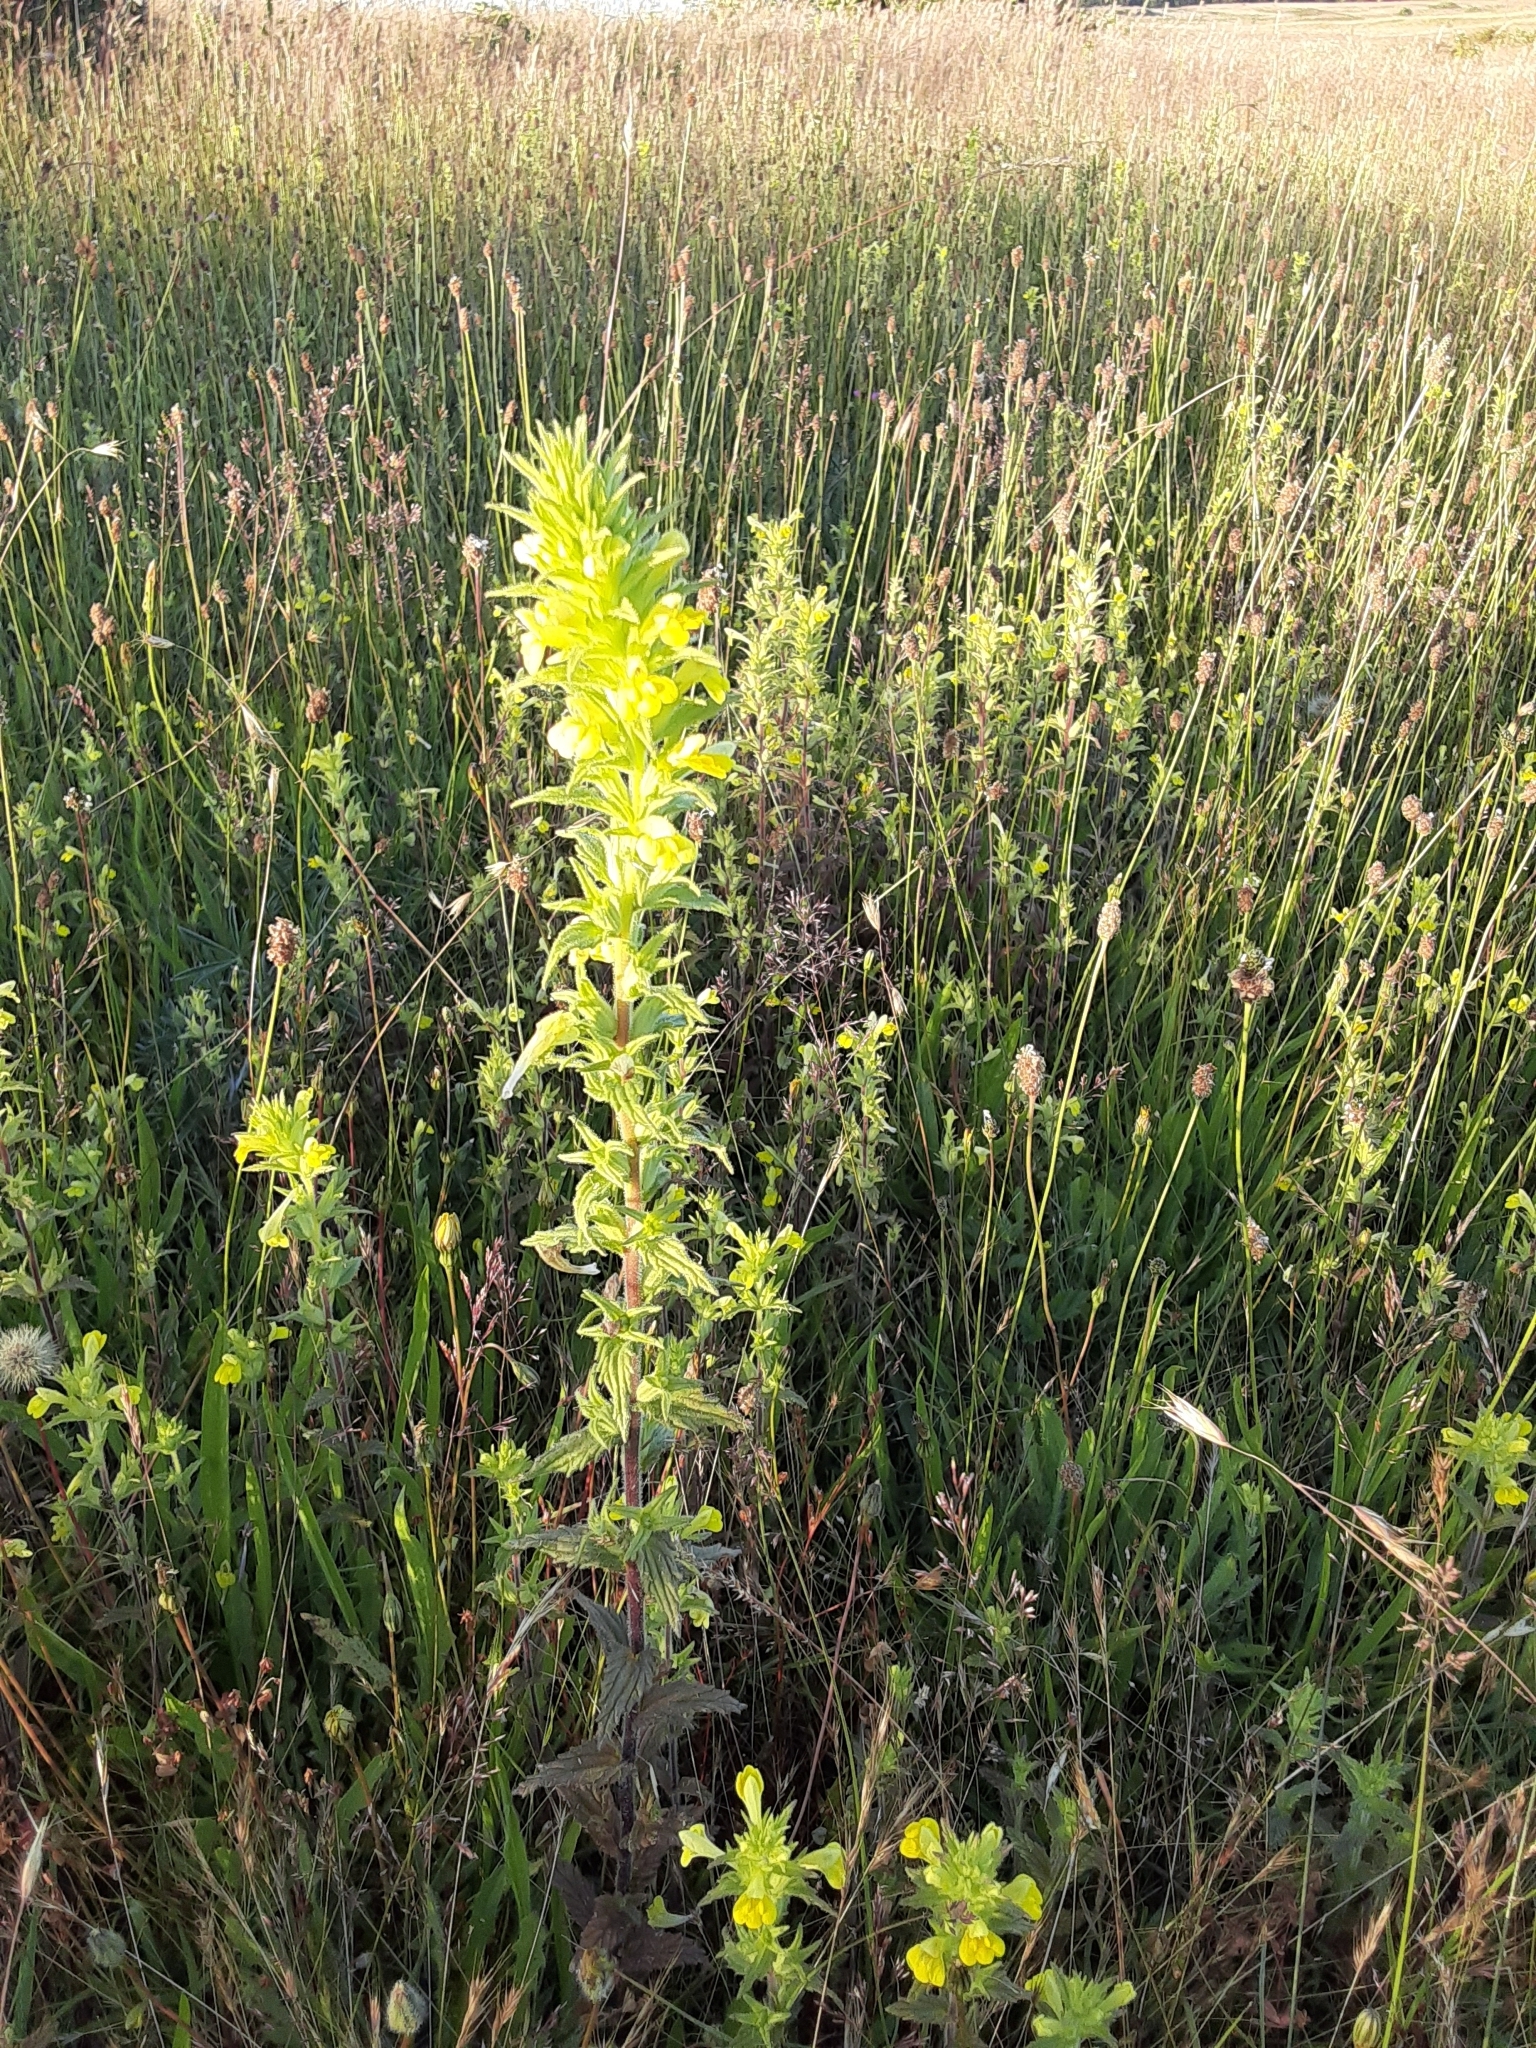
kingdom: Plantae
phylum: Tracheophyta
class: Magnoliopsida
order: Lamiales
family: Orobanchaceae
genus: Bellardia
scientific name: Bellardia viscosa
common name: Sticky parentucellia
